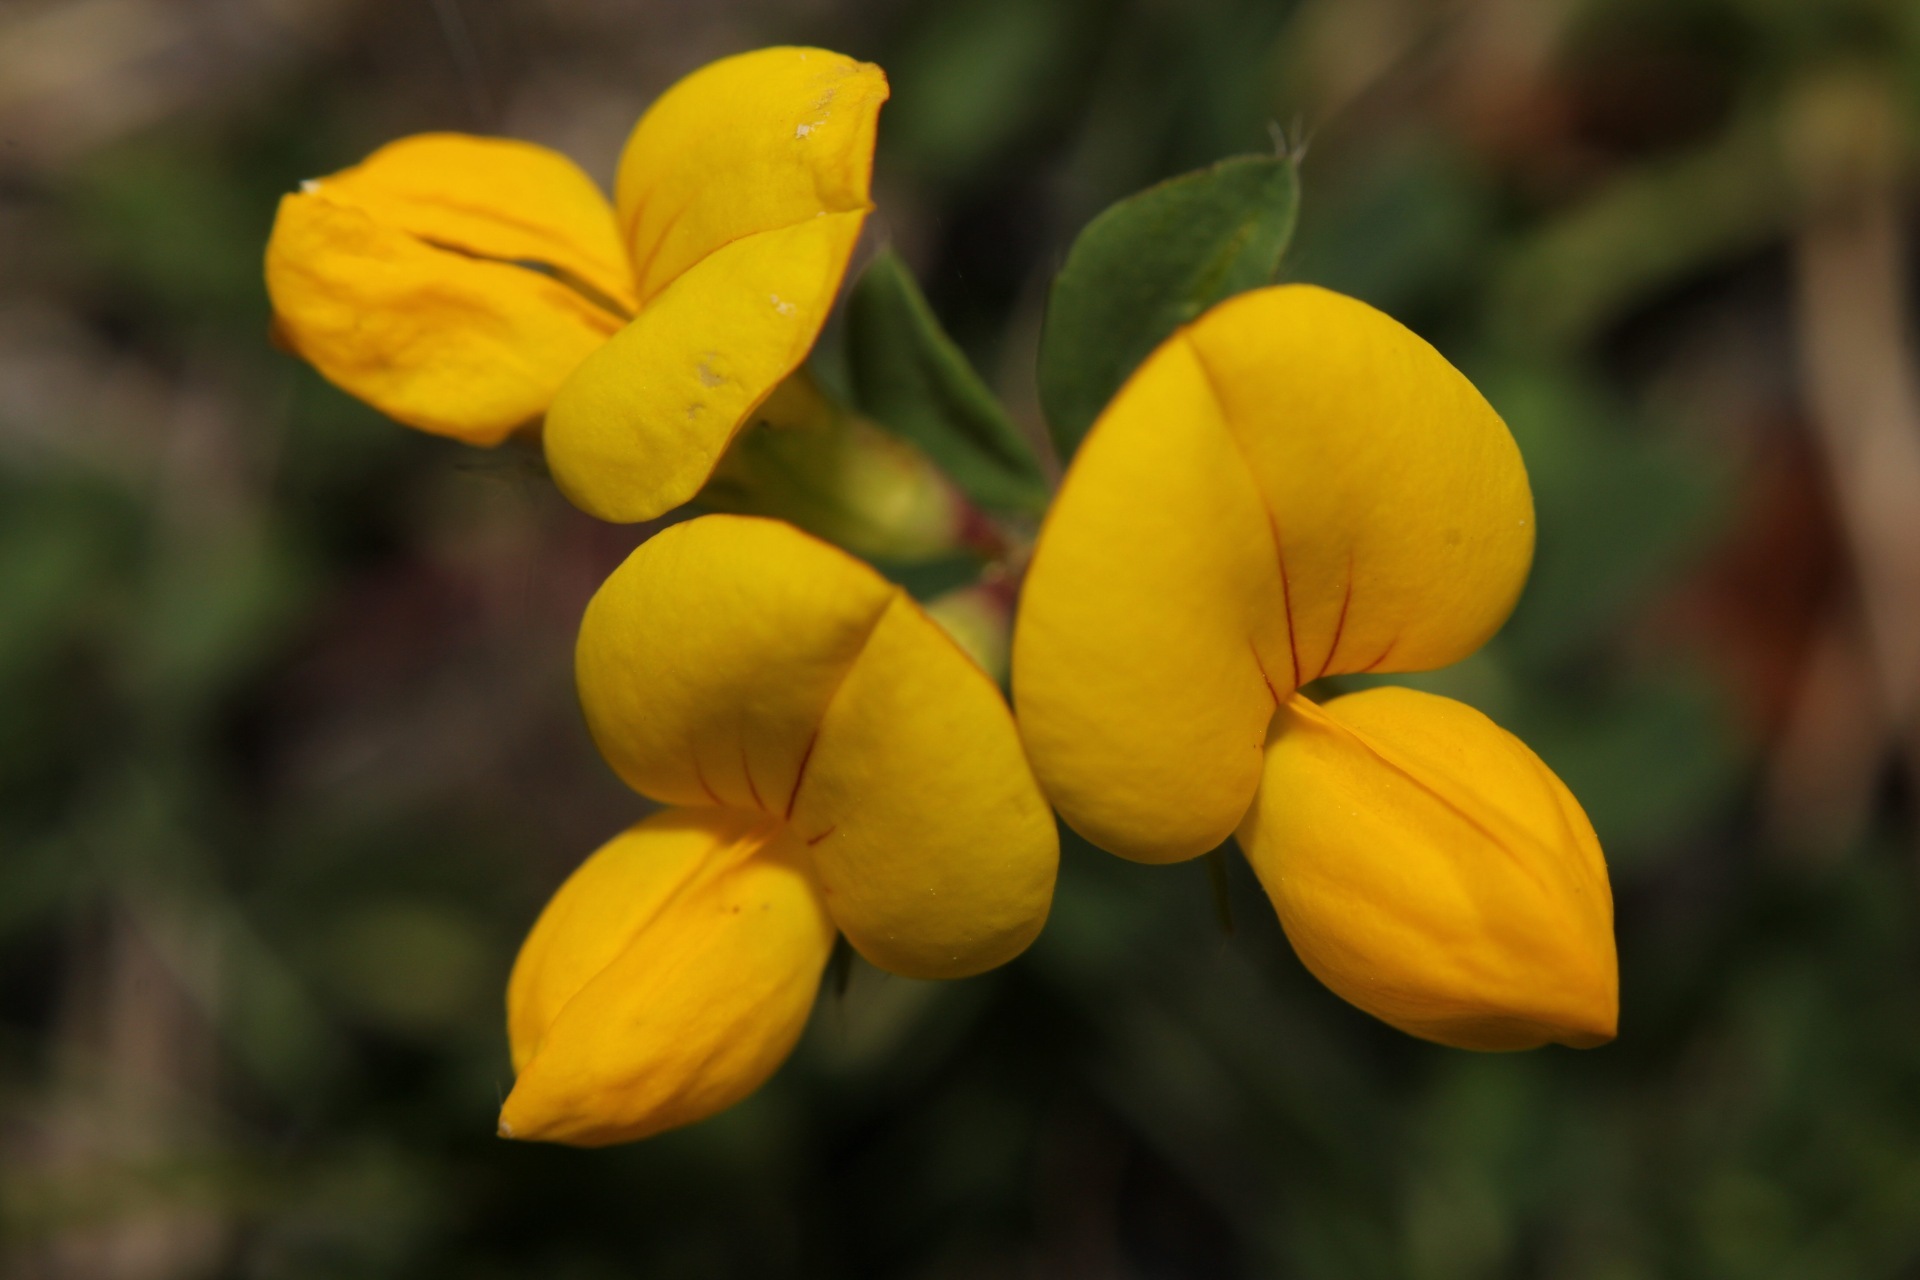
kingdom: Plantae
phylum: Tracheophyta
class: Magnoliopsida
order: Fabales
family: Fabaceae
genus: Lotus
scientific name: Lotus corniculatus
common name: Common bird's-foot-trefoil
